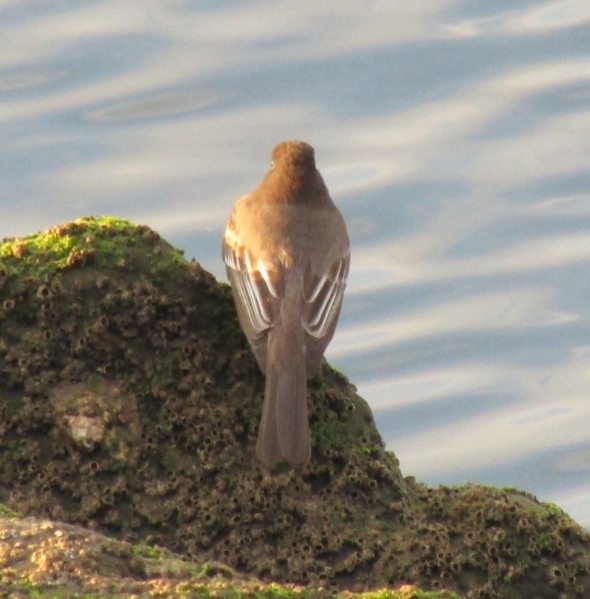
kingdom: Animalia
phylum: Chordata
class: Aves
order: Passeriformes
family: Tyrannidae
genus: Sayornis
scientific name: Sayornis nigricans
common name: Black phoebe
